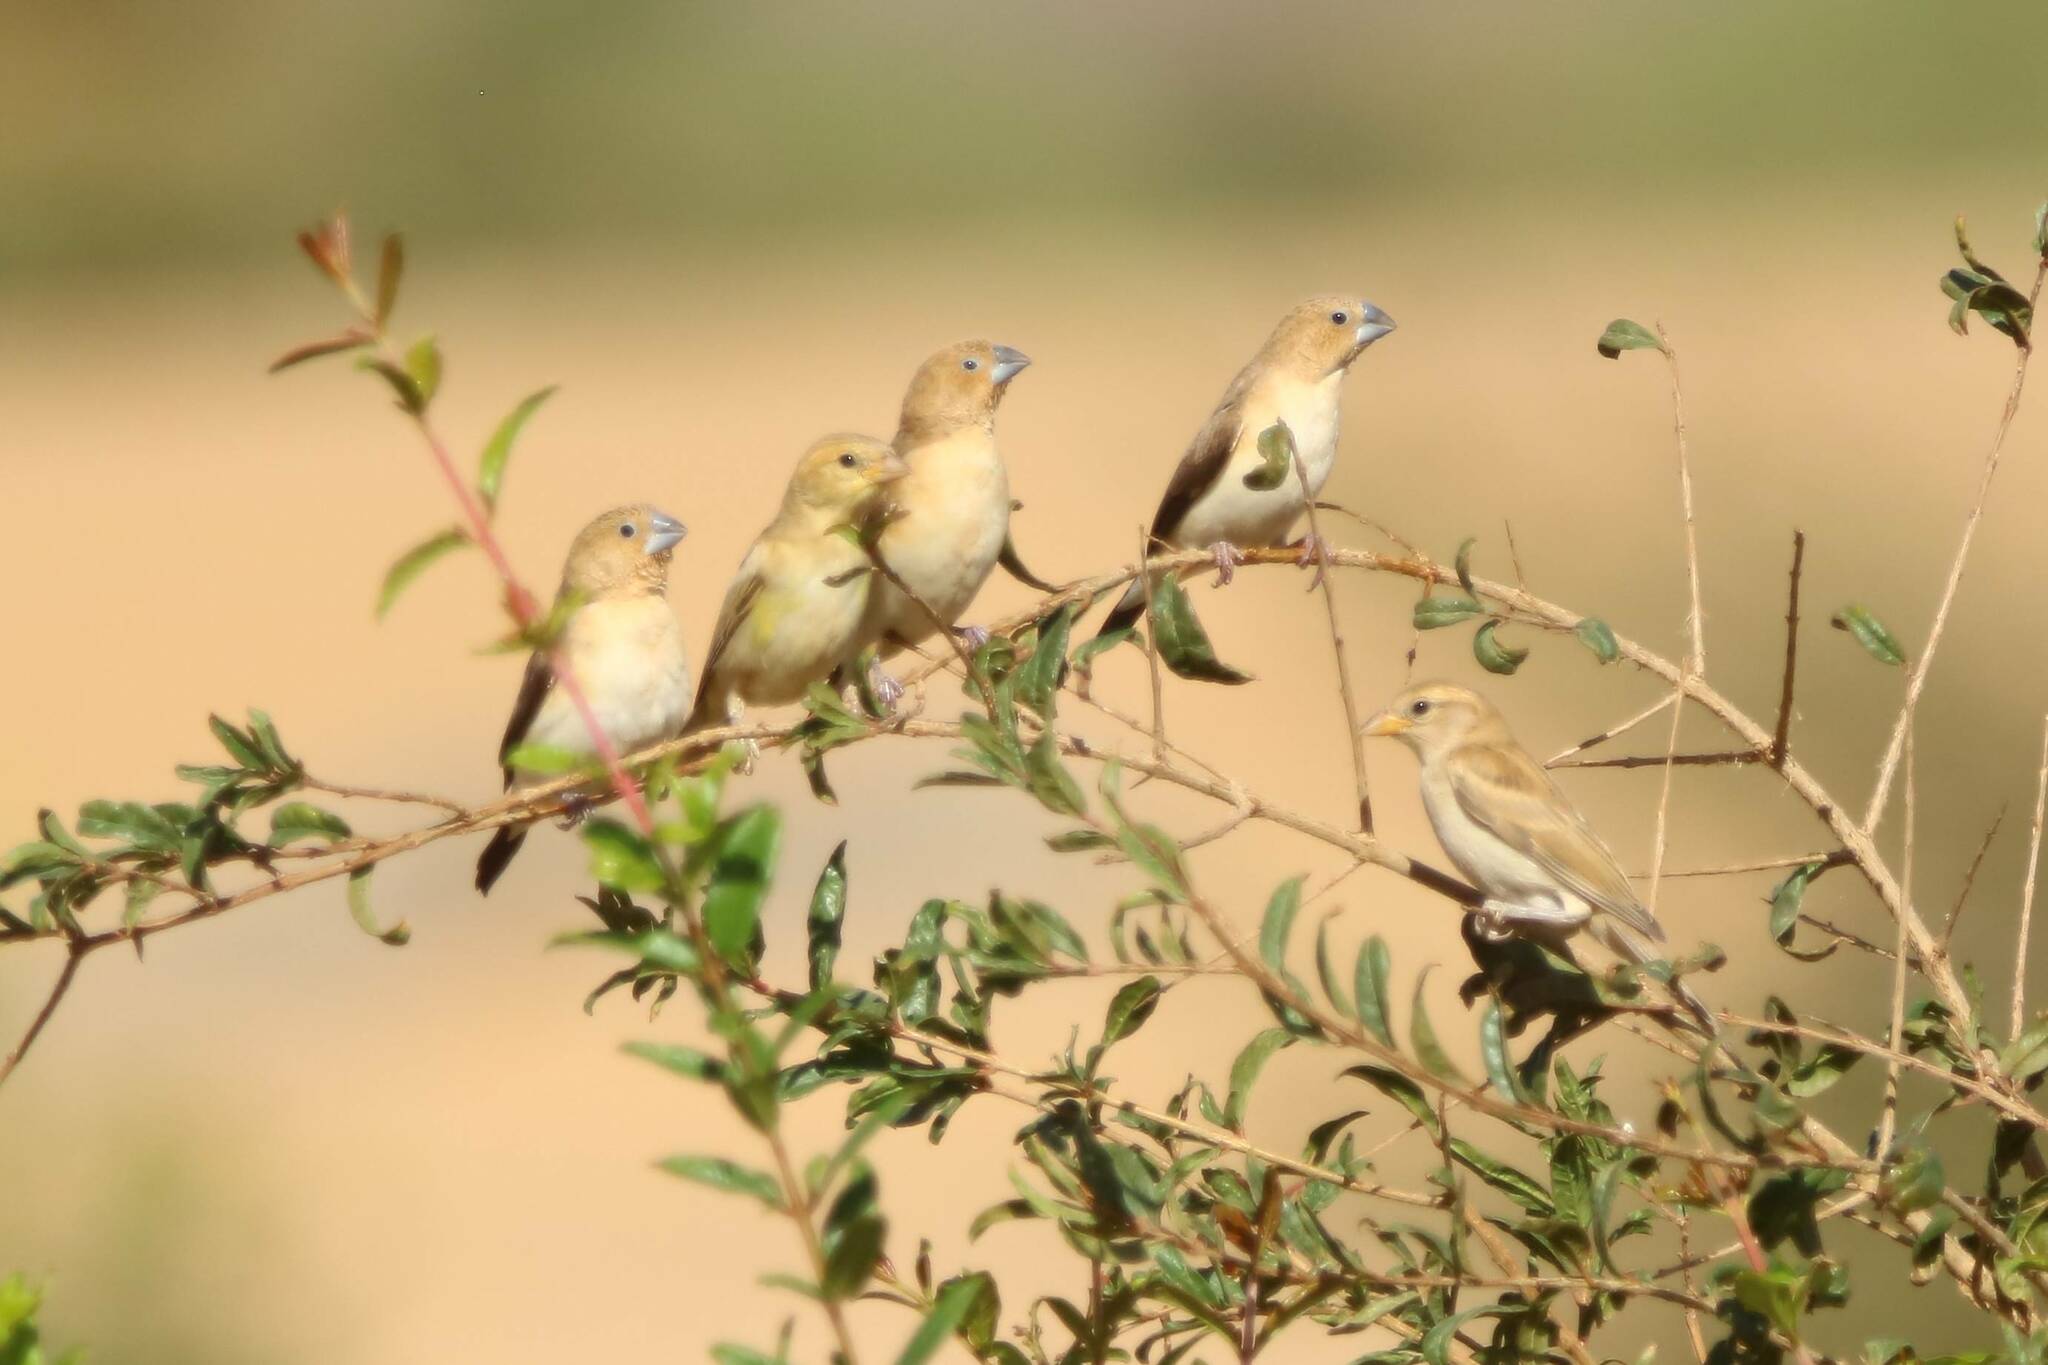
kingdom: Animalia
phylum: Chordata
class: Aves
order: Passeriformes
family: Estrildidae
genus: Euodice
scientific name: Euodice cantans
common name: African silverbill
